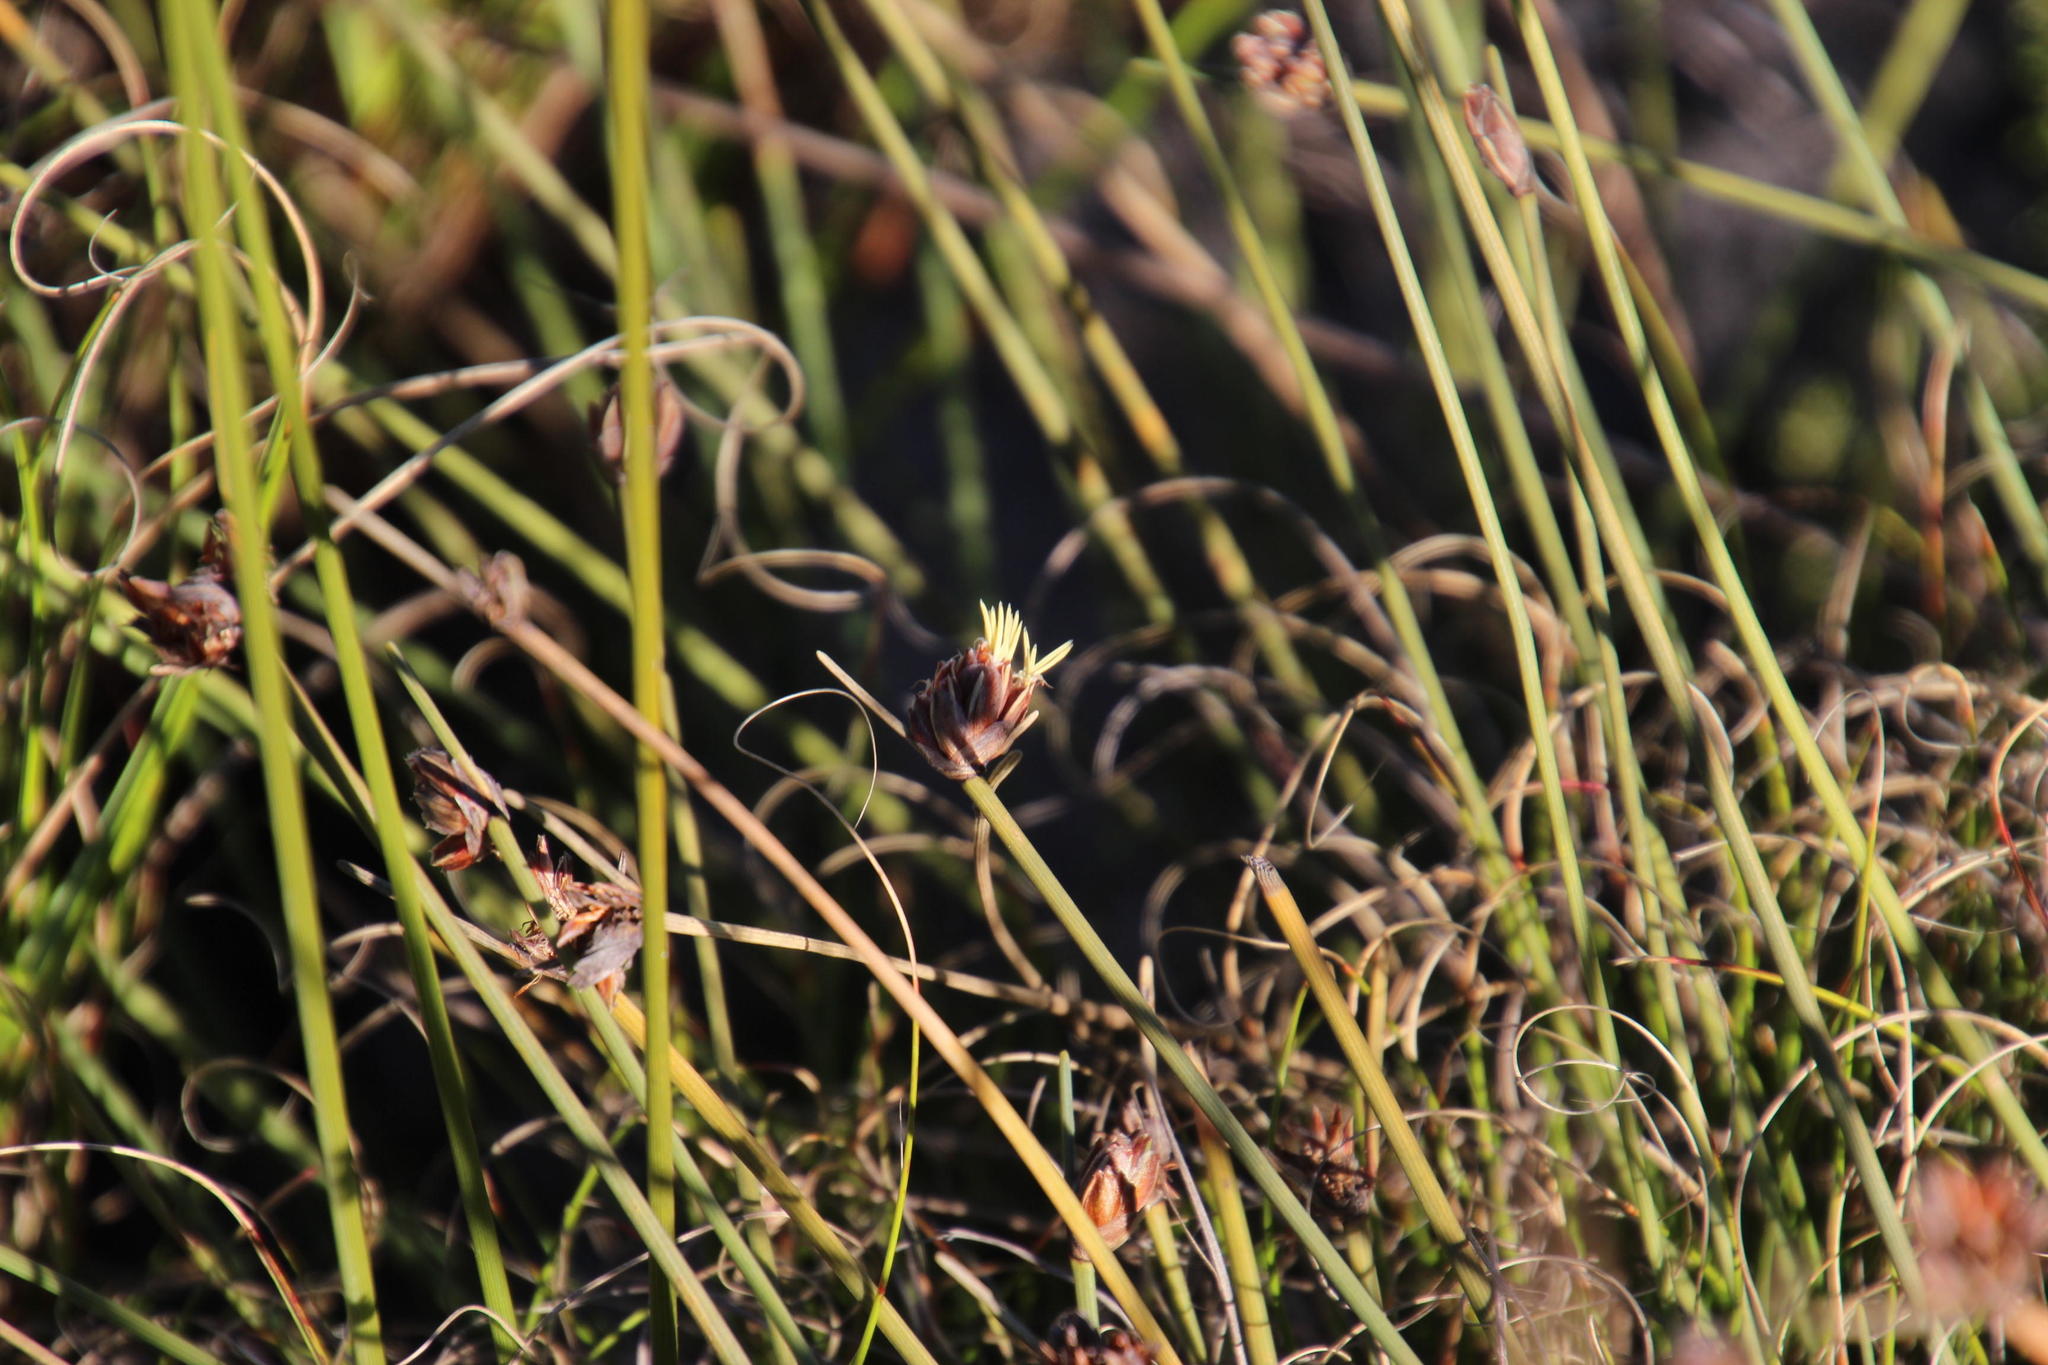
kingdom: Plantae
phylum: Tracheophyta
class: Liliopsida
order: Poales
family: Cyperaceae
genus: Ficinia
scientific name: Ficinia pinguior
